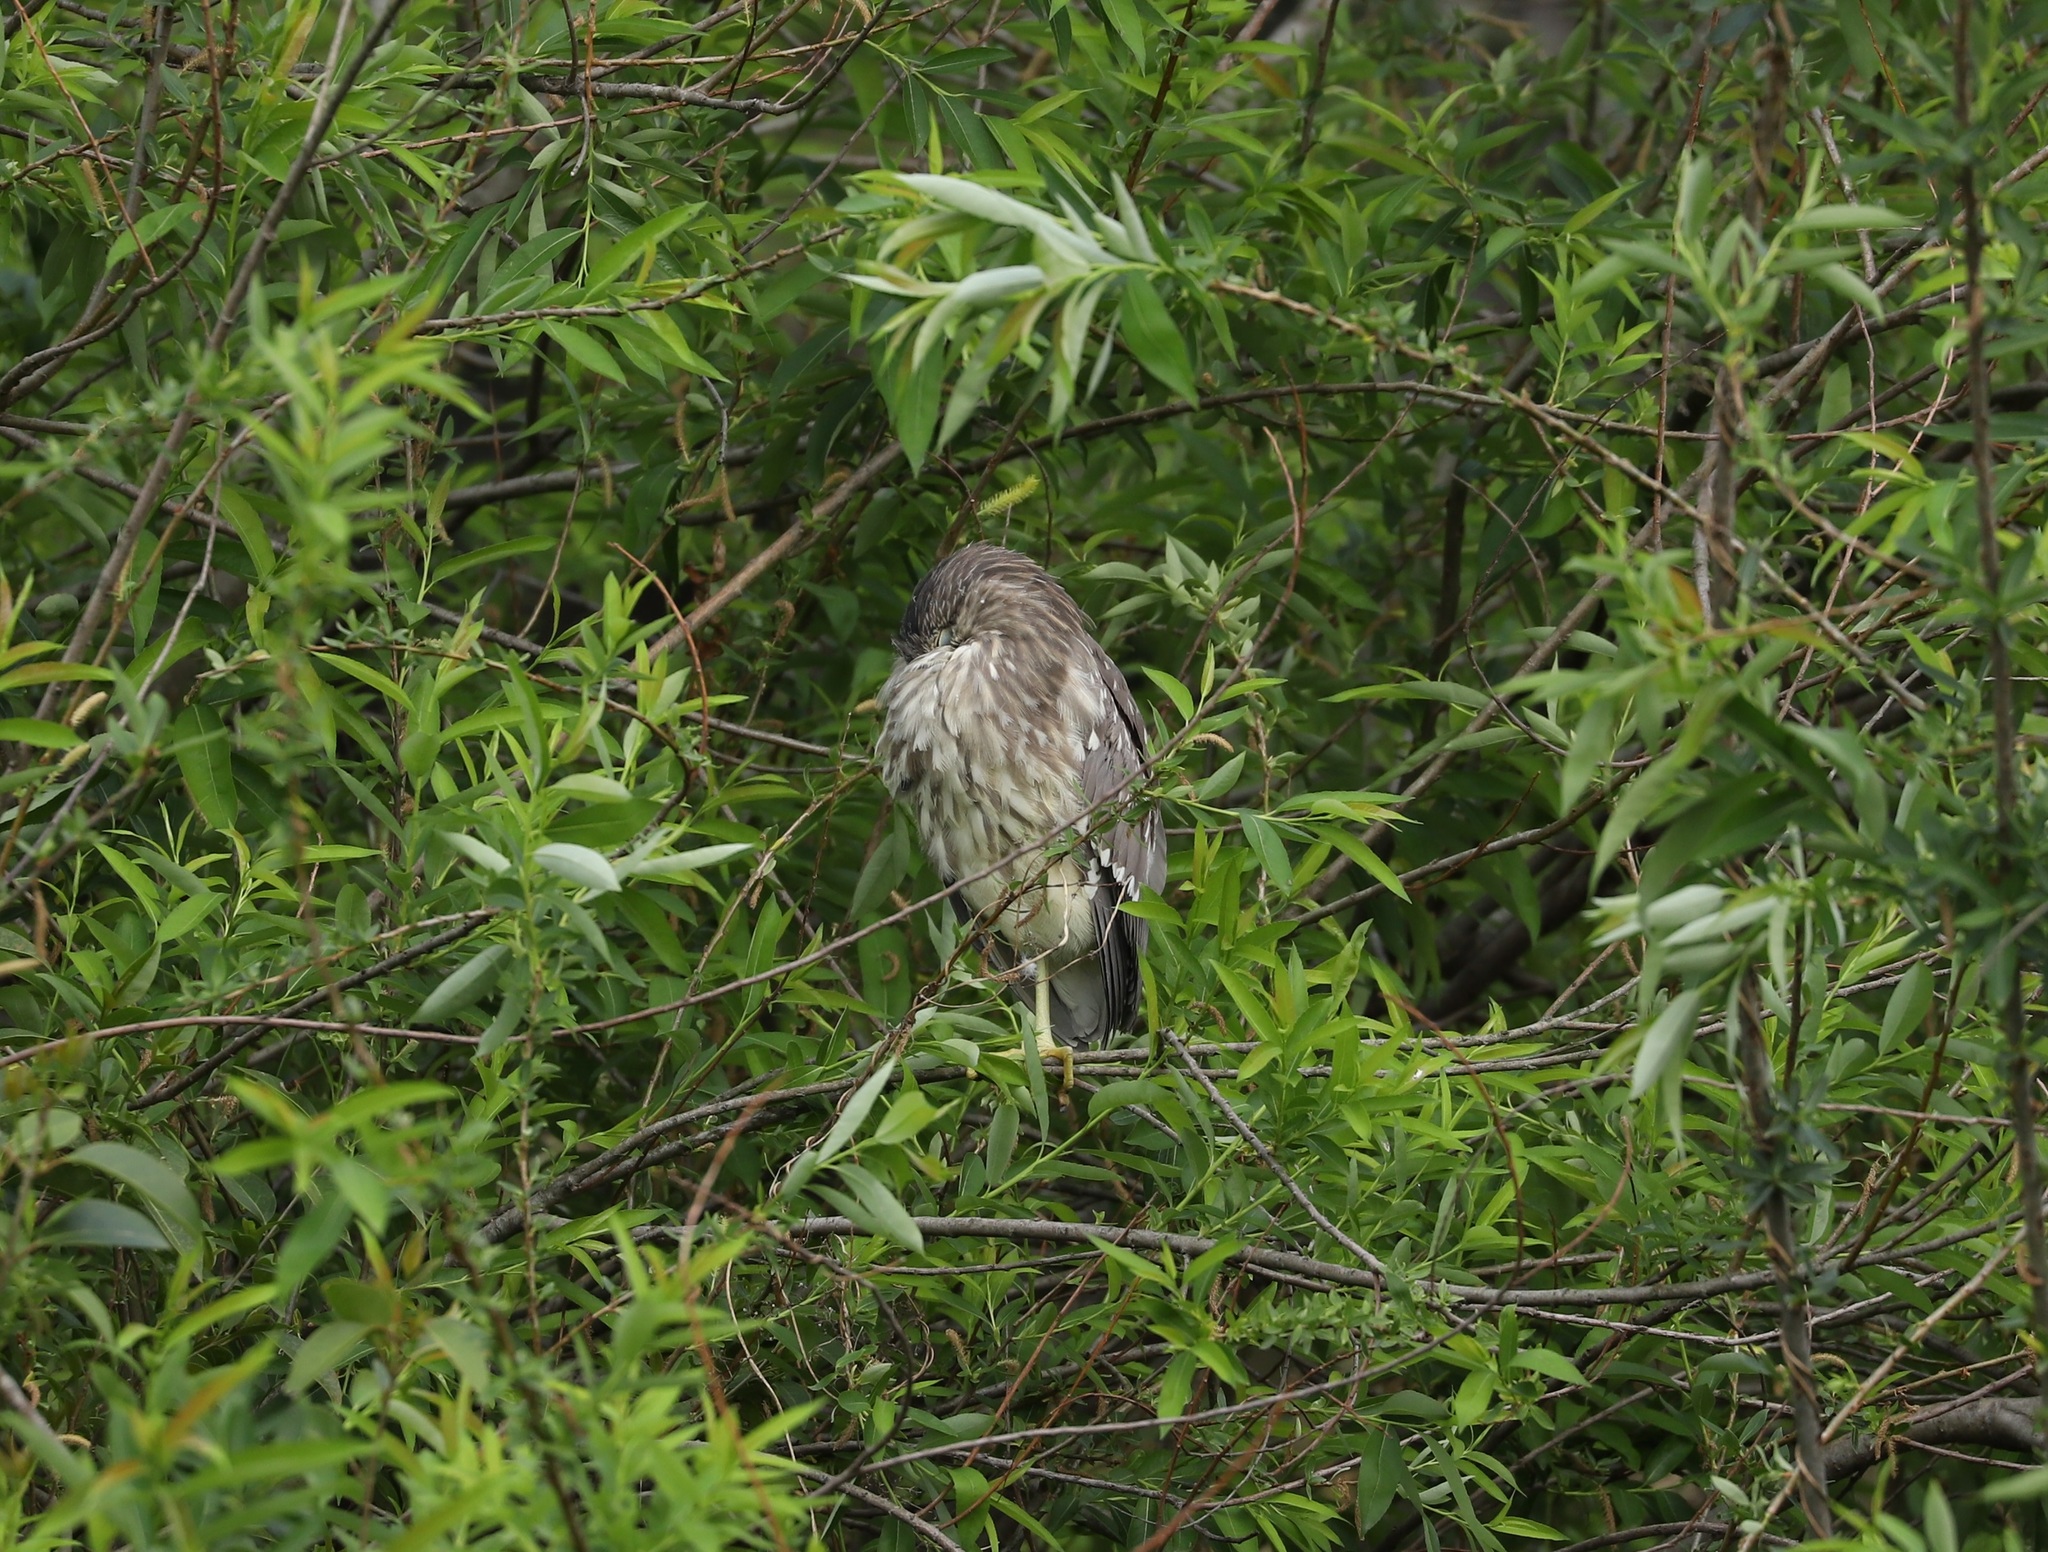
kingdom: Animalia
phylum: Chordata
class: Aves
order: Pelecaniformes
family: Ardeidae
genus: Nycticorax
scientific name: Nycticorax nycticorax
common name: Black-crowned night heron
